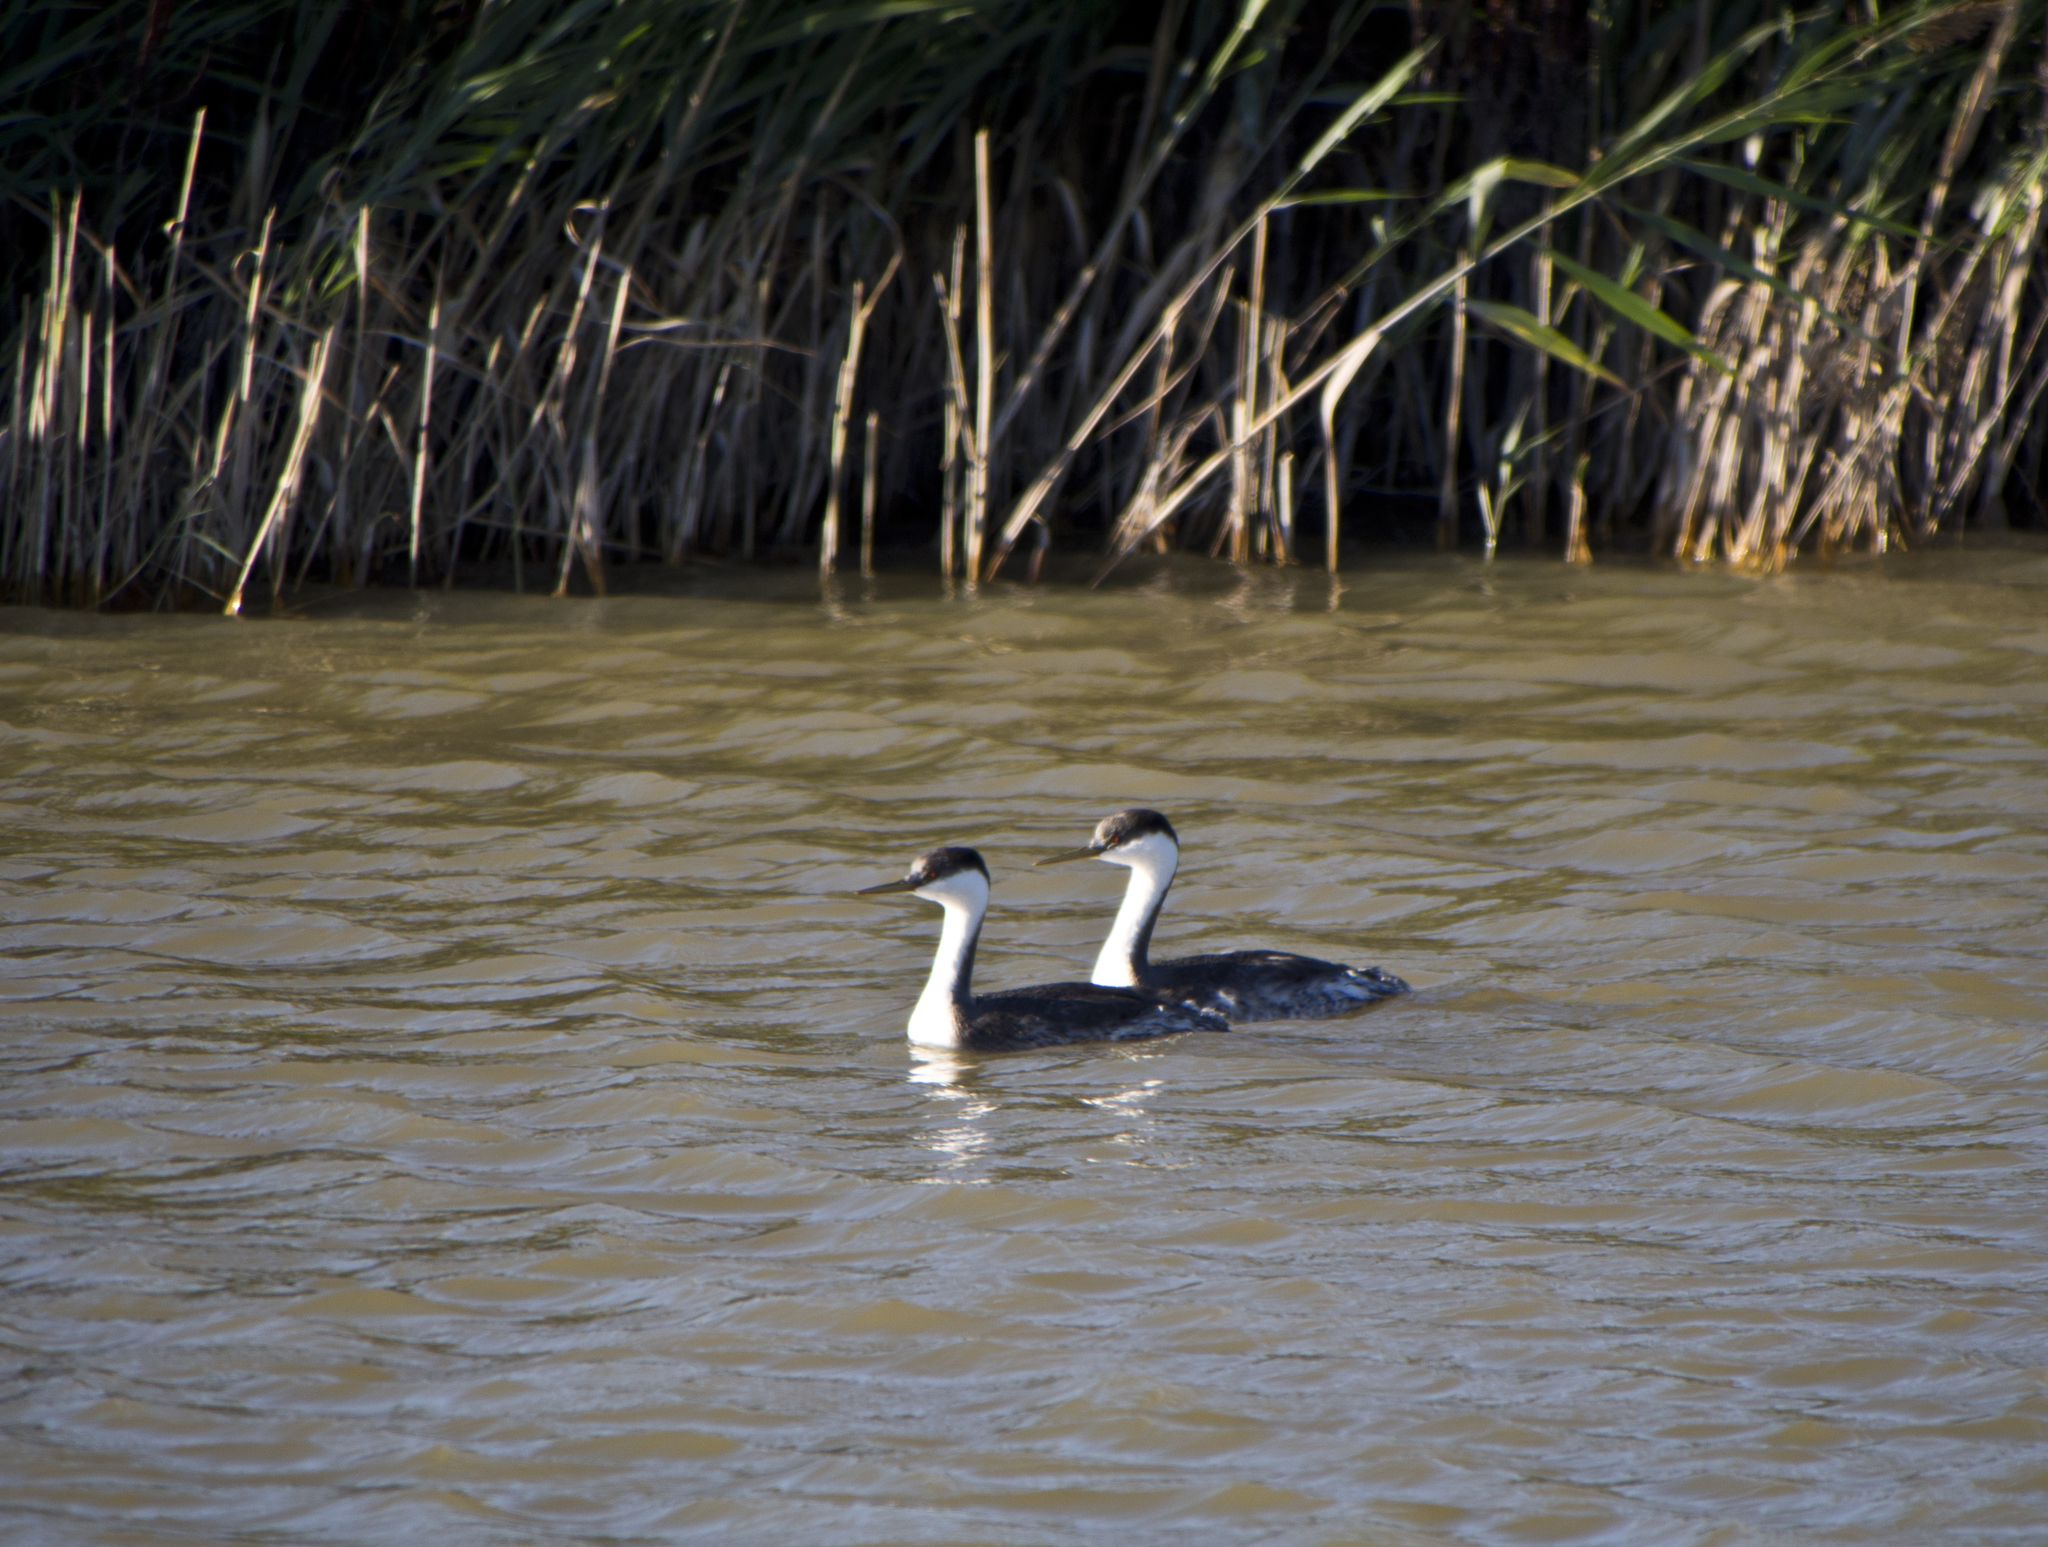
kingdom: Animalia
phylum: Chordata
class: Aves
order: Podicipediformes
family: Podicipedidae
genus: Aechmophorus
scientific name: Aechmophorus occidentalis
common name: Western grebe
